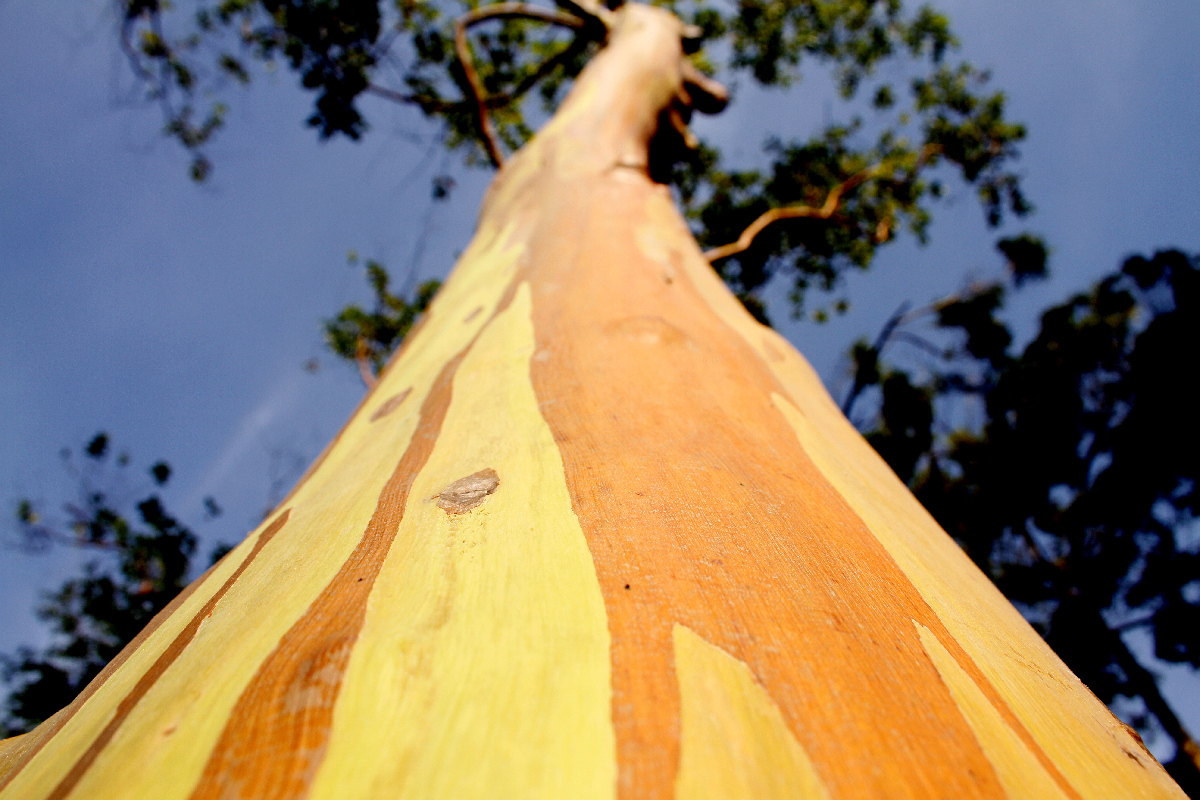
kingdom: Plantae
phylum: Tracheophyta
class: Magnoliopsida
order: Myrtales
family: Myrtaceae
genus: Eucalyptus
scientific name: Eucalyptus deglupta
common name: Mindanao gum
